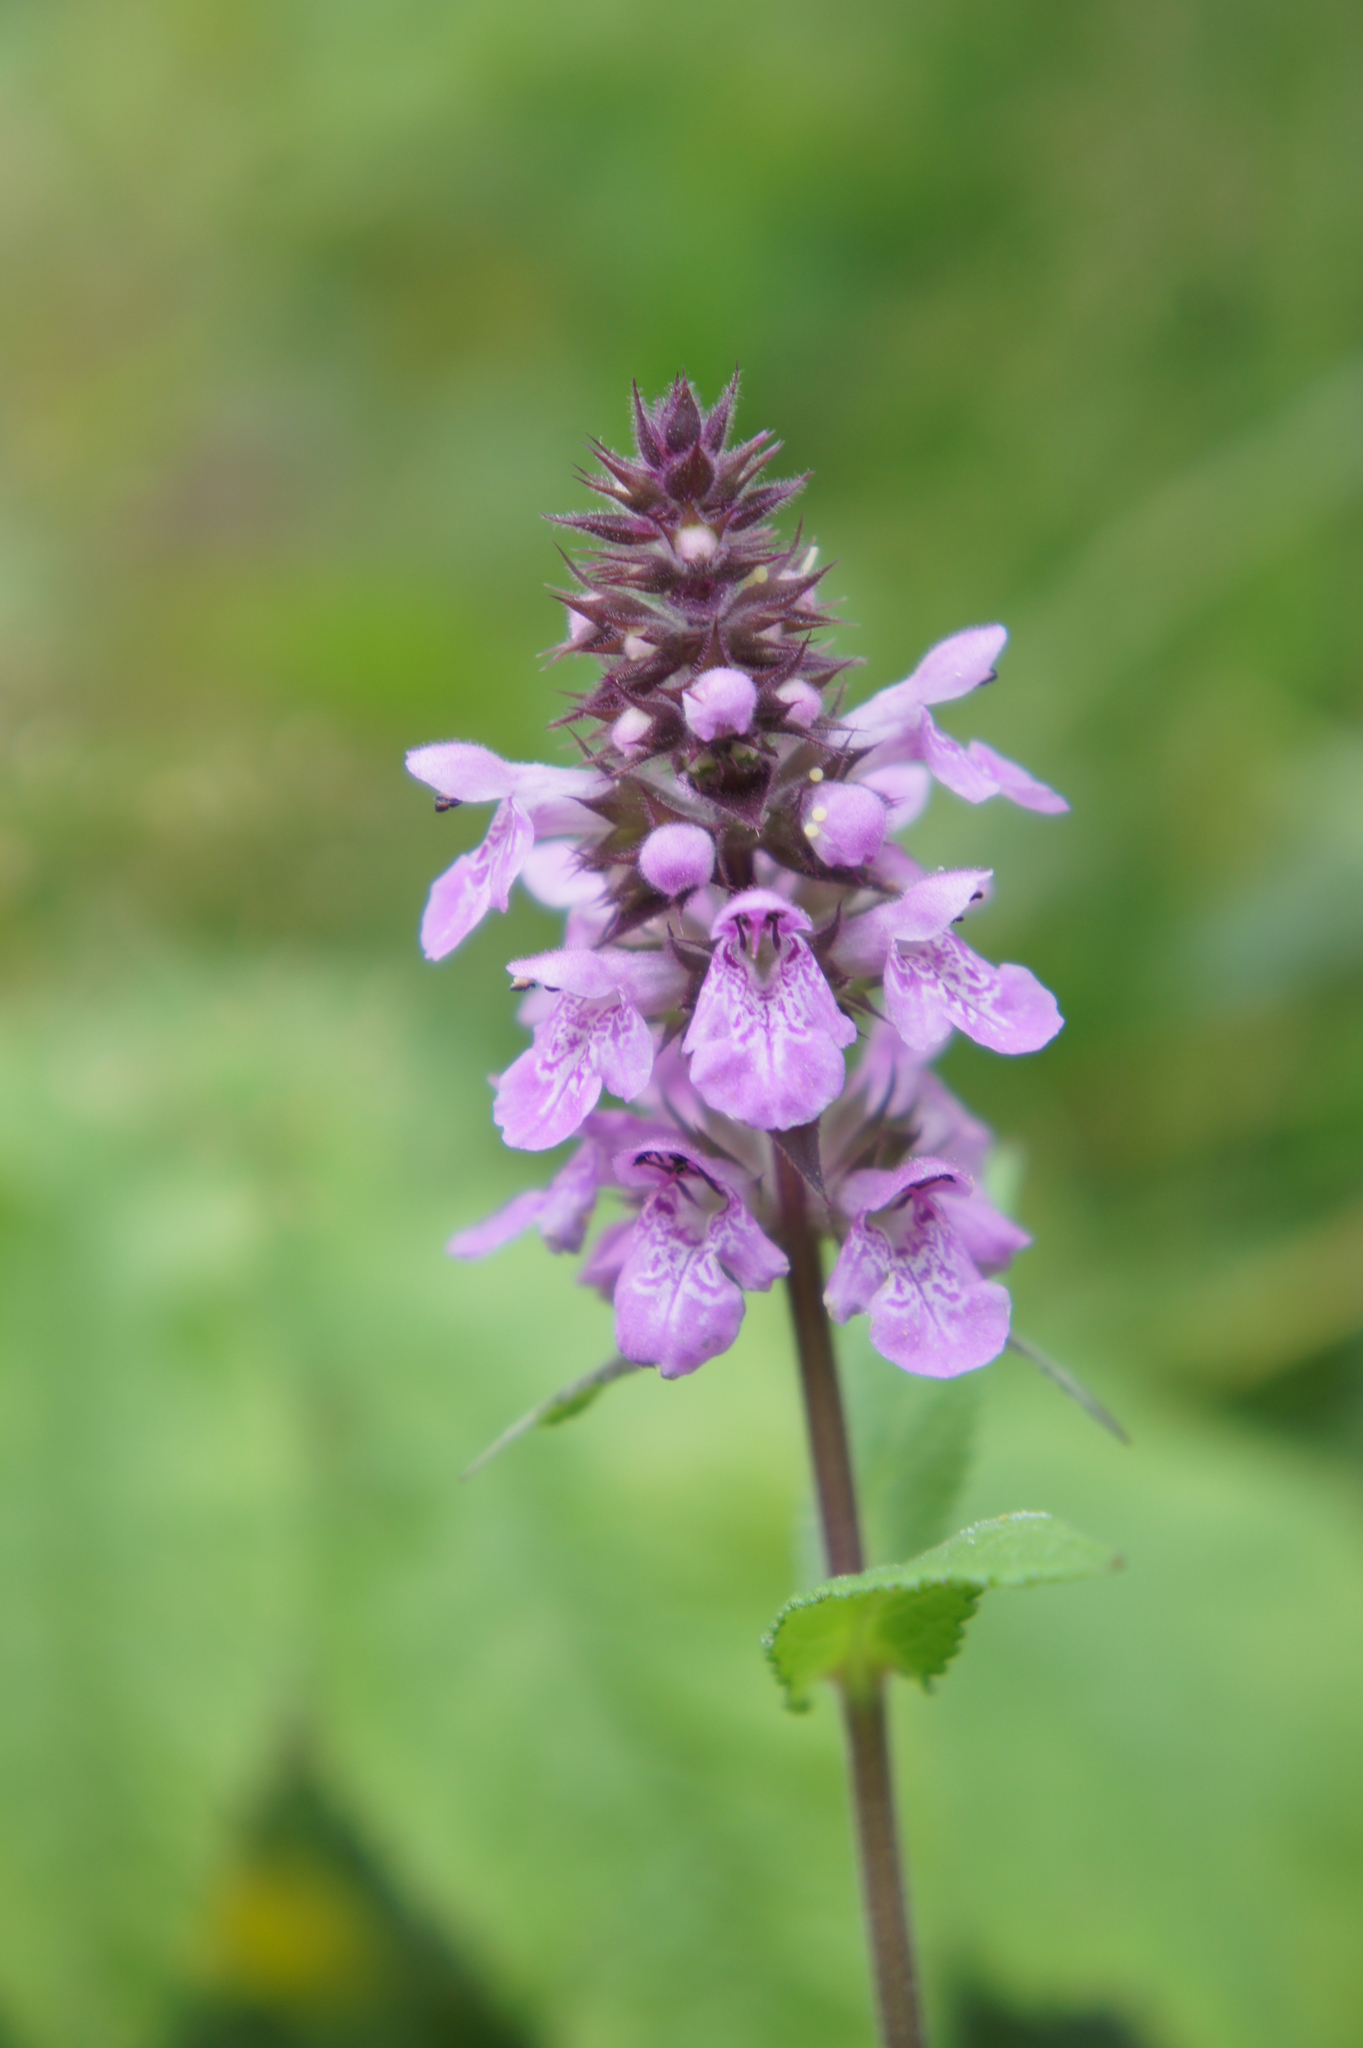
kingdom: Plantae
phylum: Tracheophyta
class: Magnoliopsida
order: Lamiales
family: Lamiaceae
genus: Stachys
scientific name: Stachys palustris
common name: Marsh woundwort
